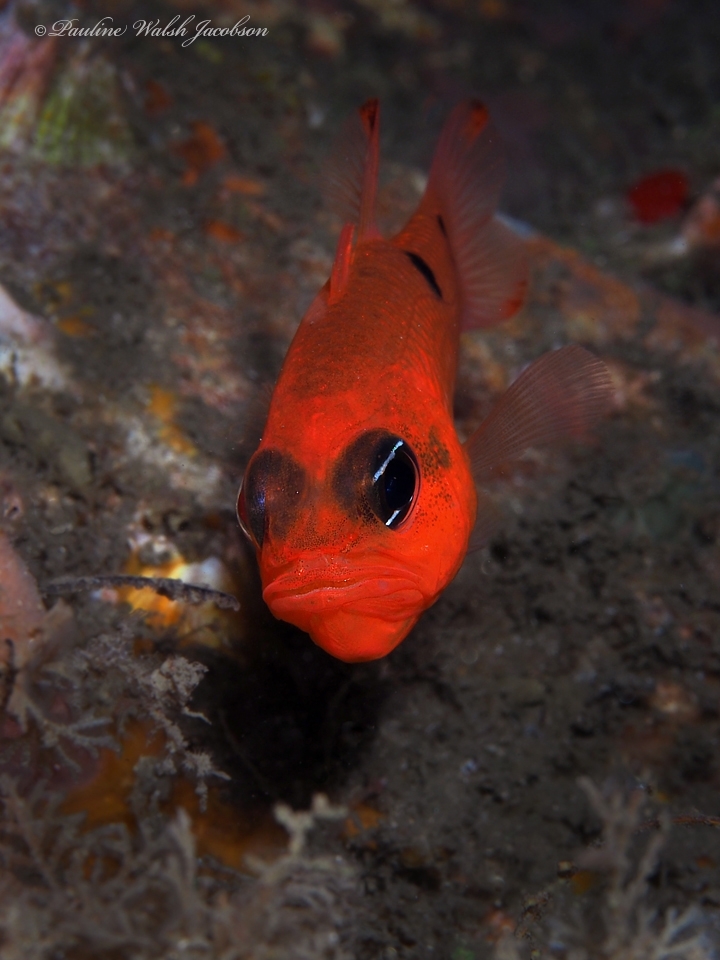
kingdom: Animalia
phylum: Chordata
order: Perciformes
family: Apogonidae
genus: Apogon
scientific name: Apogon pseudomaculatus
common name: Twospot cardinalfish
